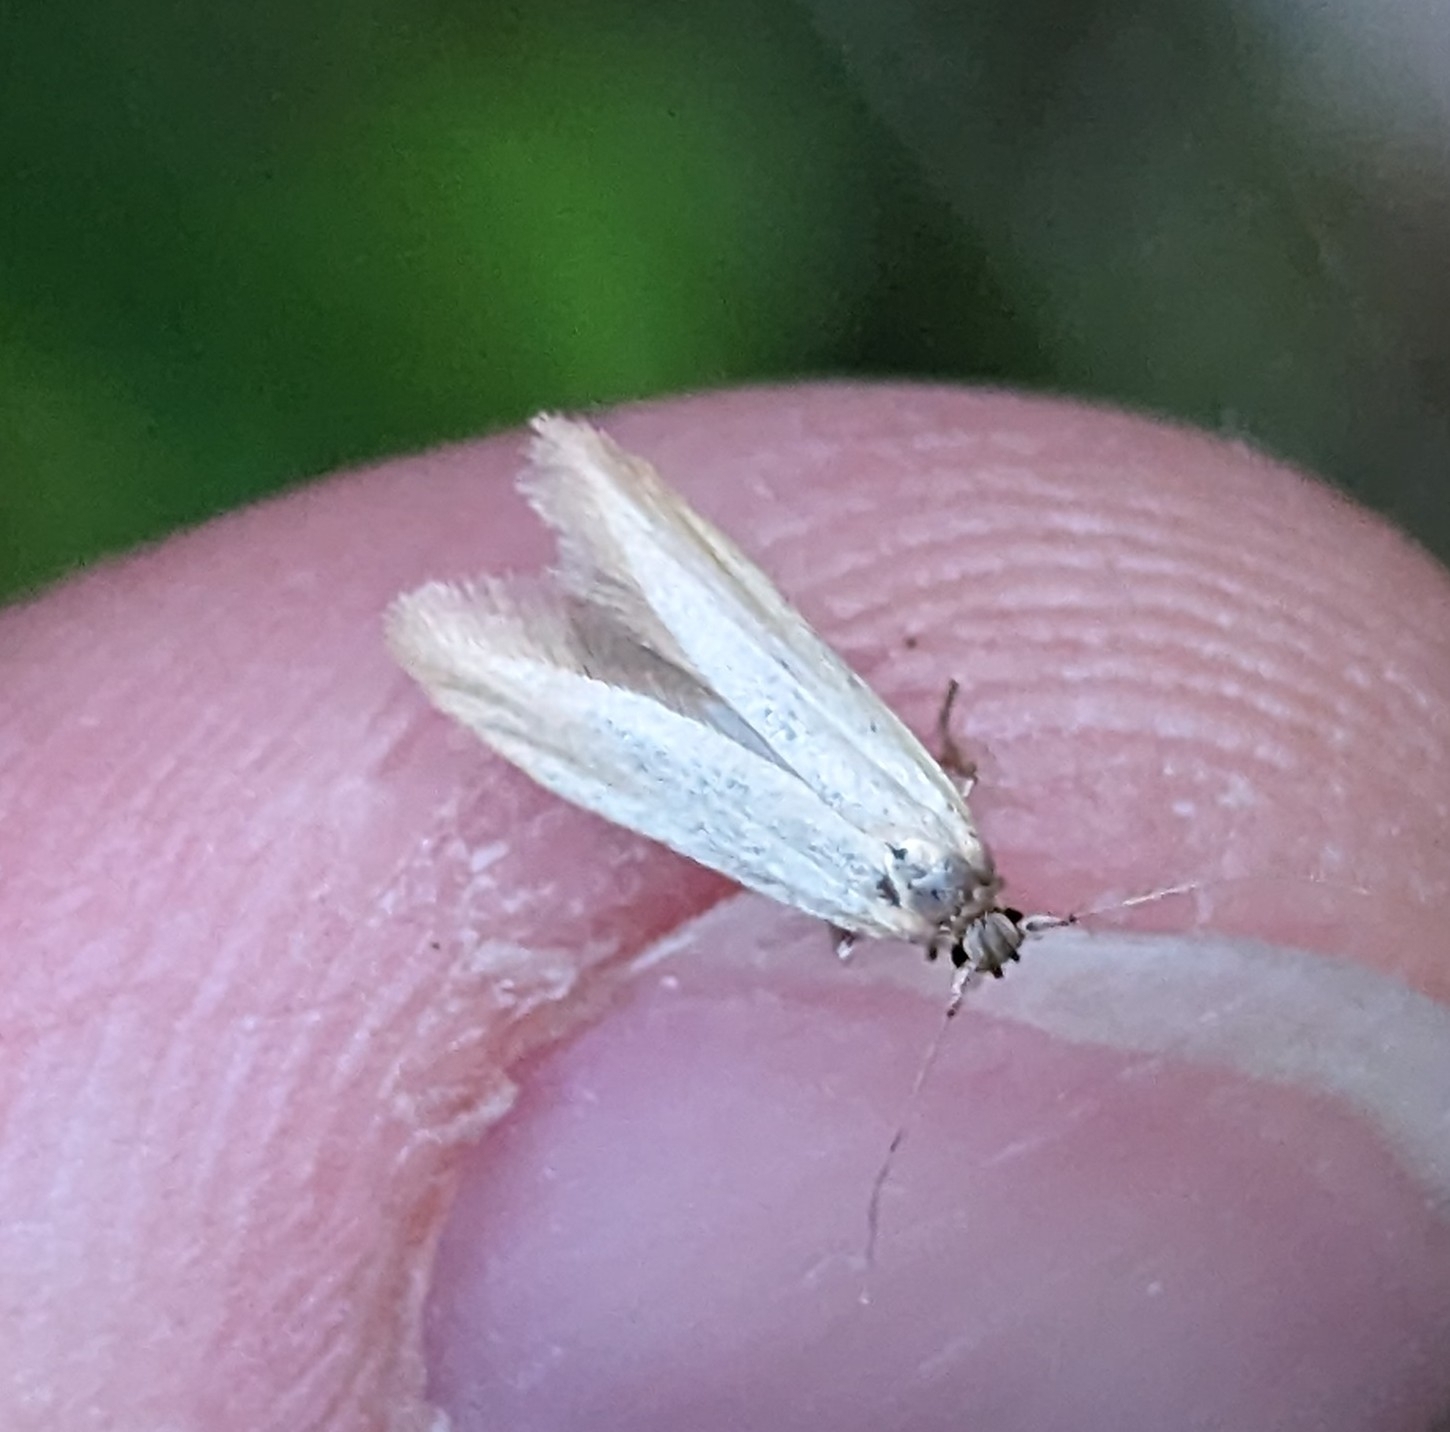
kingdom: Animalia
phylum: Arthropoda
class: Insecta
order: Lepidoptera
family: Blastobasidae
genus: Holcocerina
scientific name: Holcocerina immaculella
